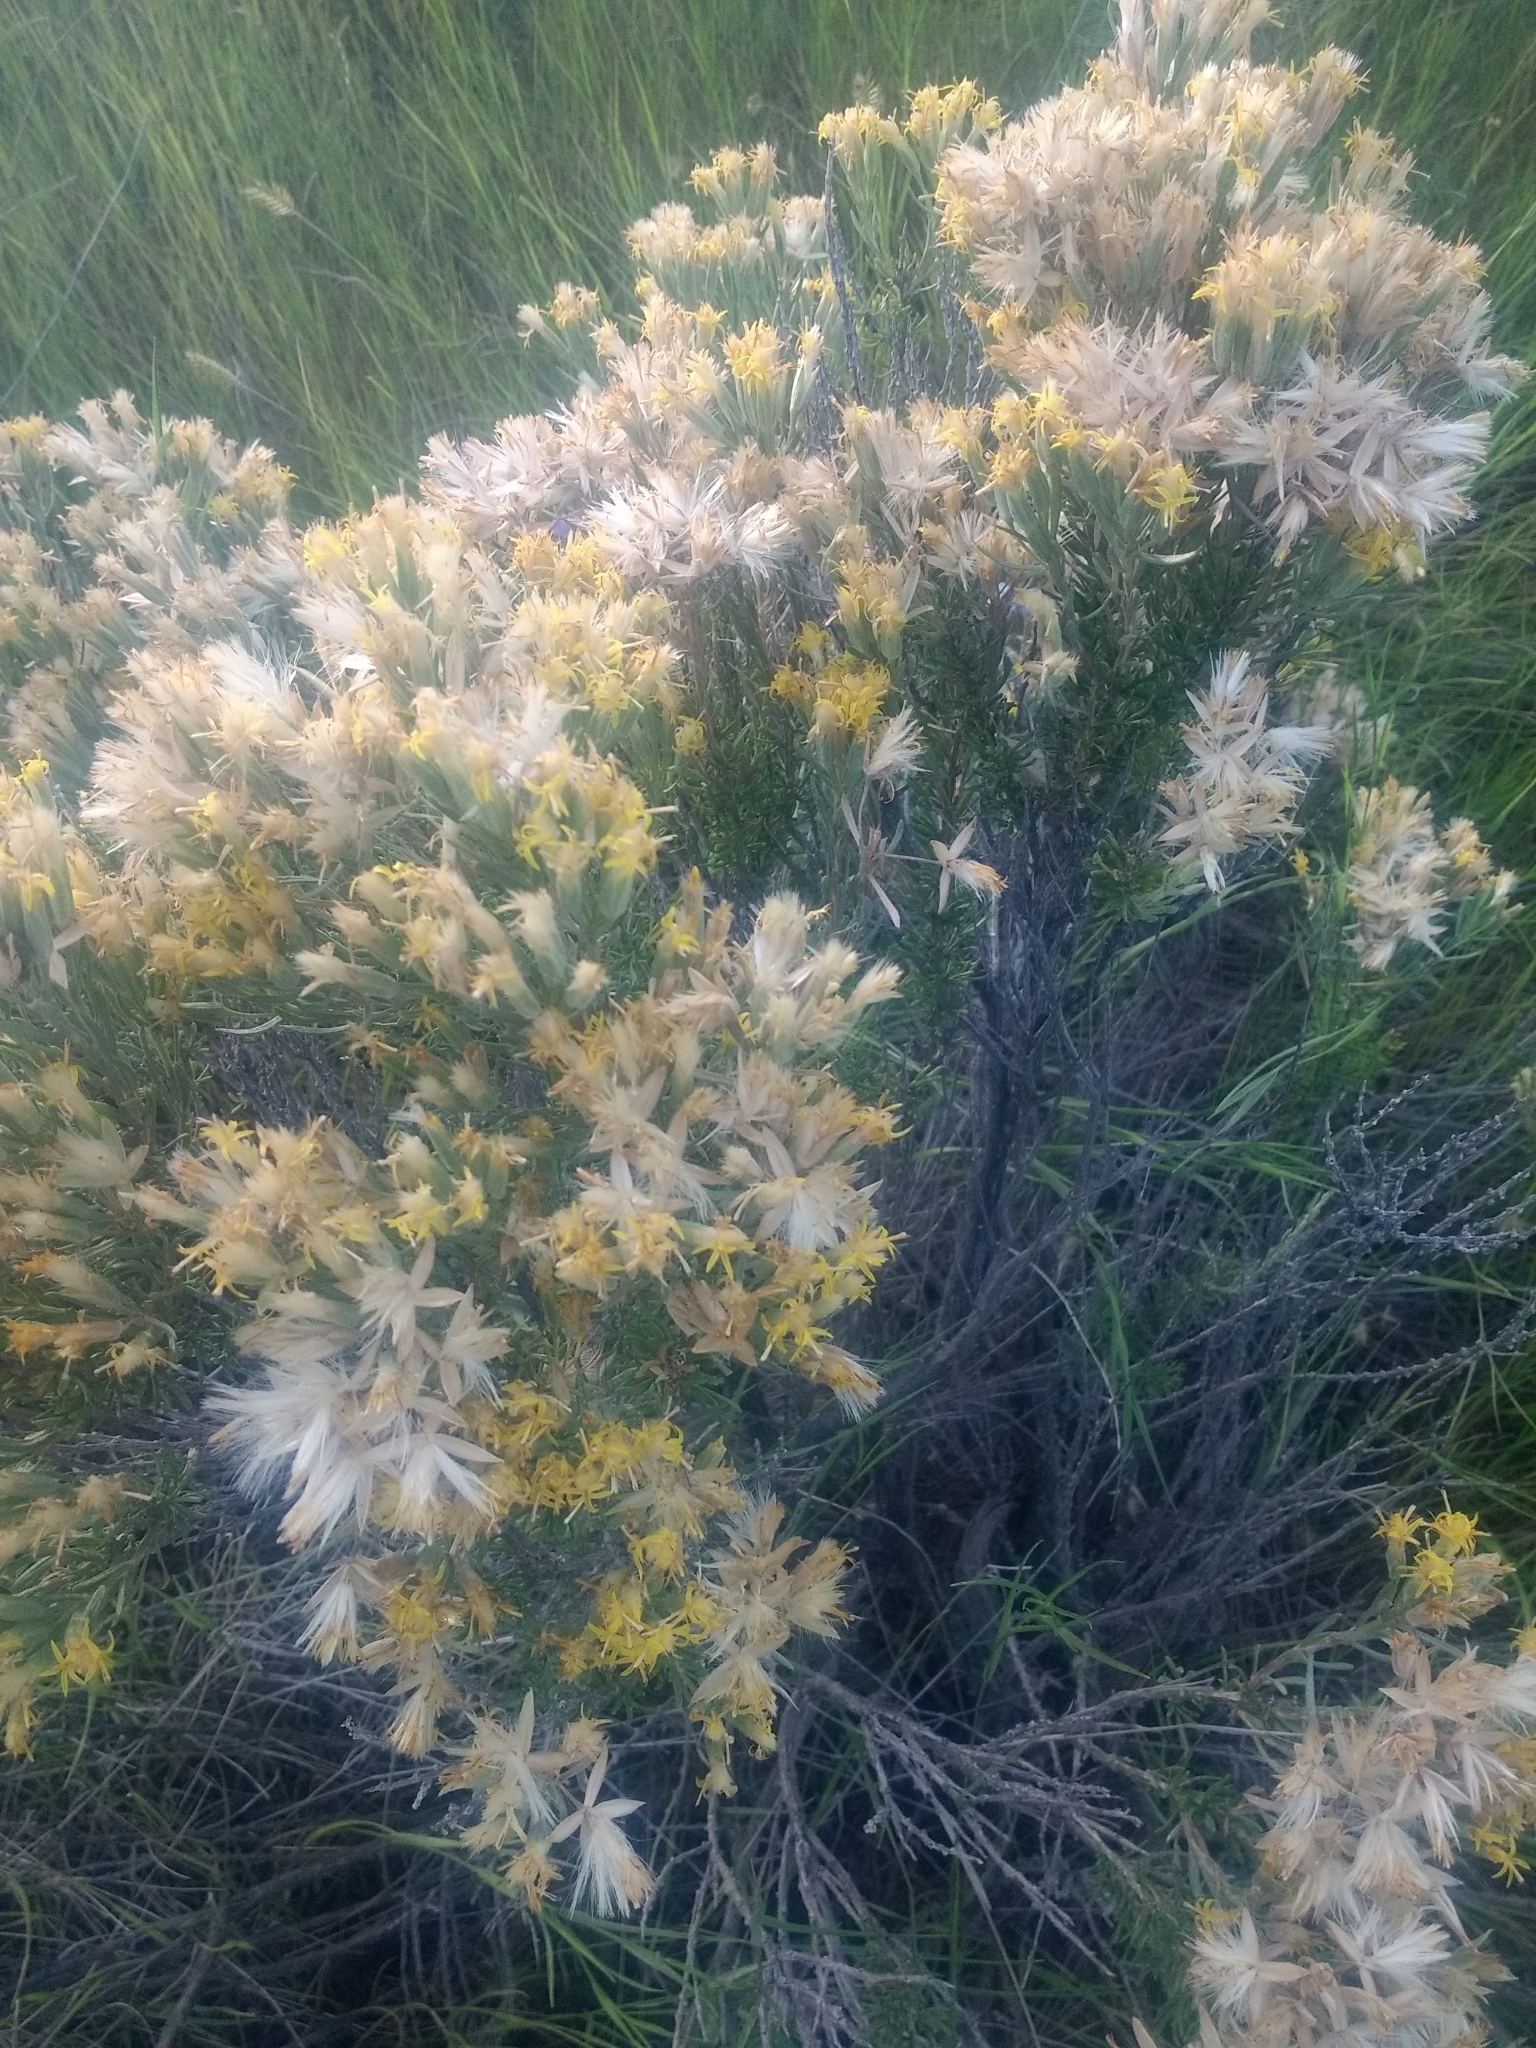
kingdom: Plantae
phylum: Tracheophyta
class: Magnoliopsida
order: Asterales
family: Asteraceae
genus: Ericameria
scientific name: Ericameria nauseosa
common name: Rubber rabbitbrush
